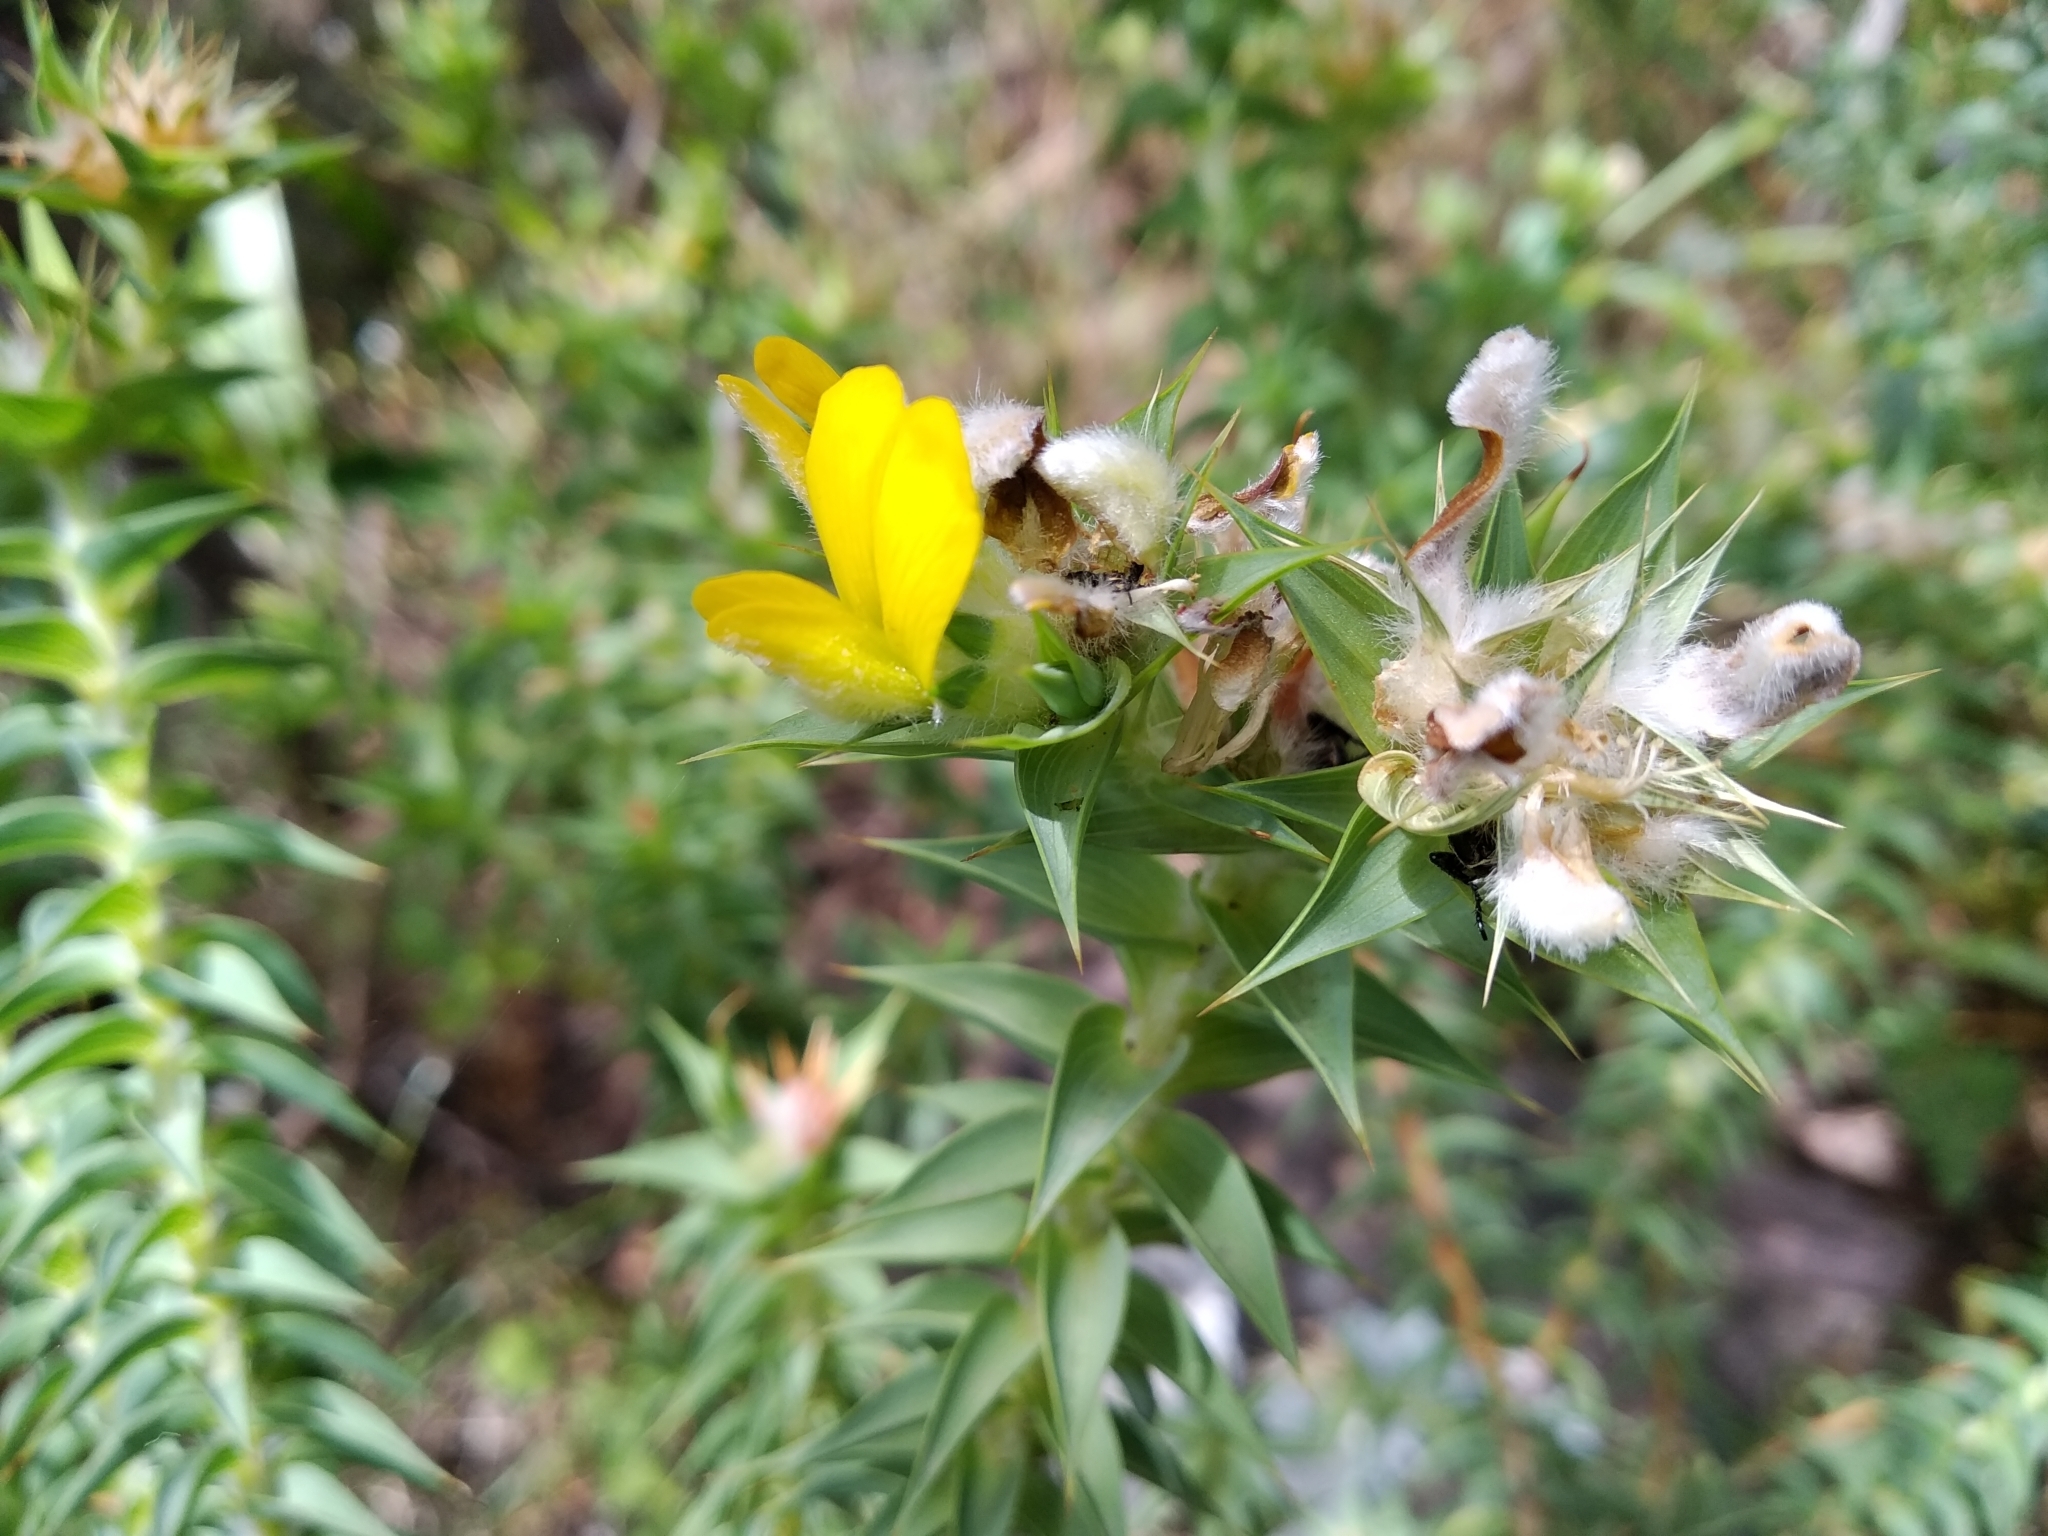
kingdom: Plantae
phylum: Tracheophyta
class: Magnoliopsida
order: Fabales
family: Fabaceae
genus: Aspalathus
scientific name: Aspalathus cordata
